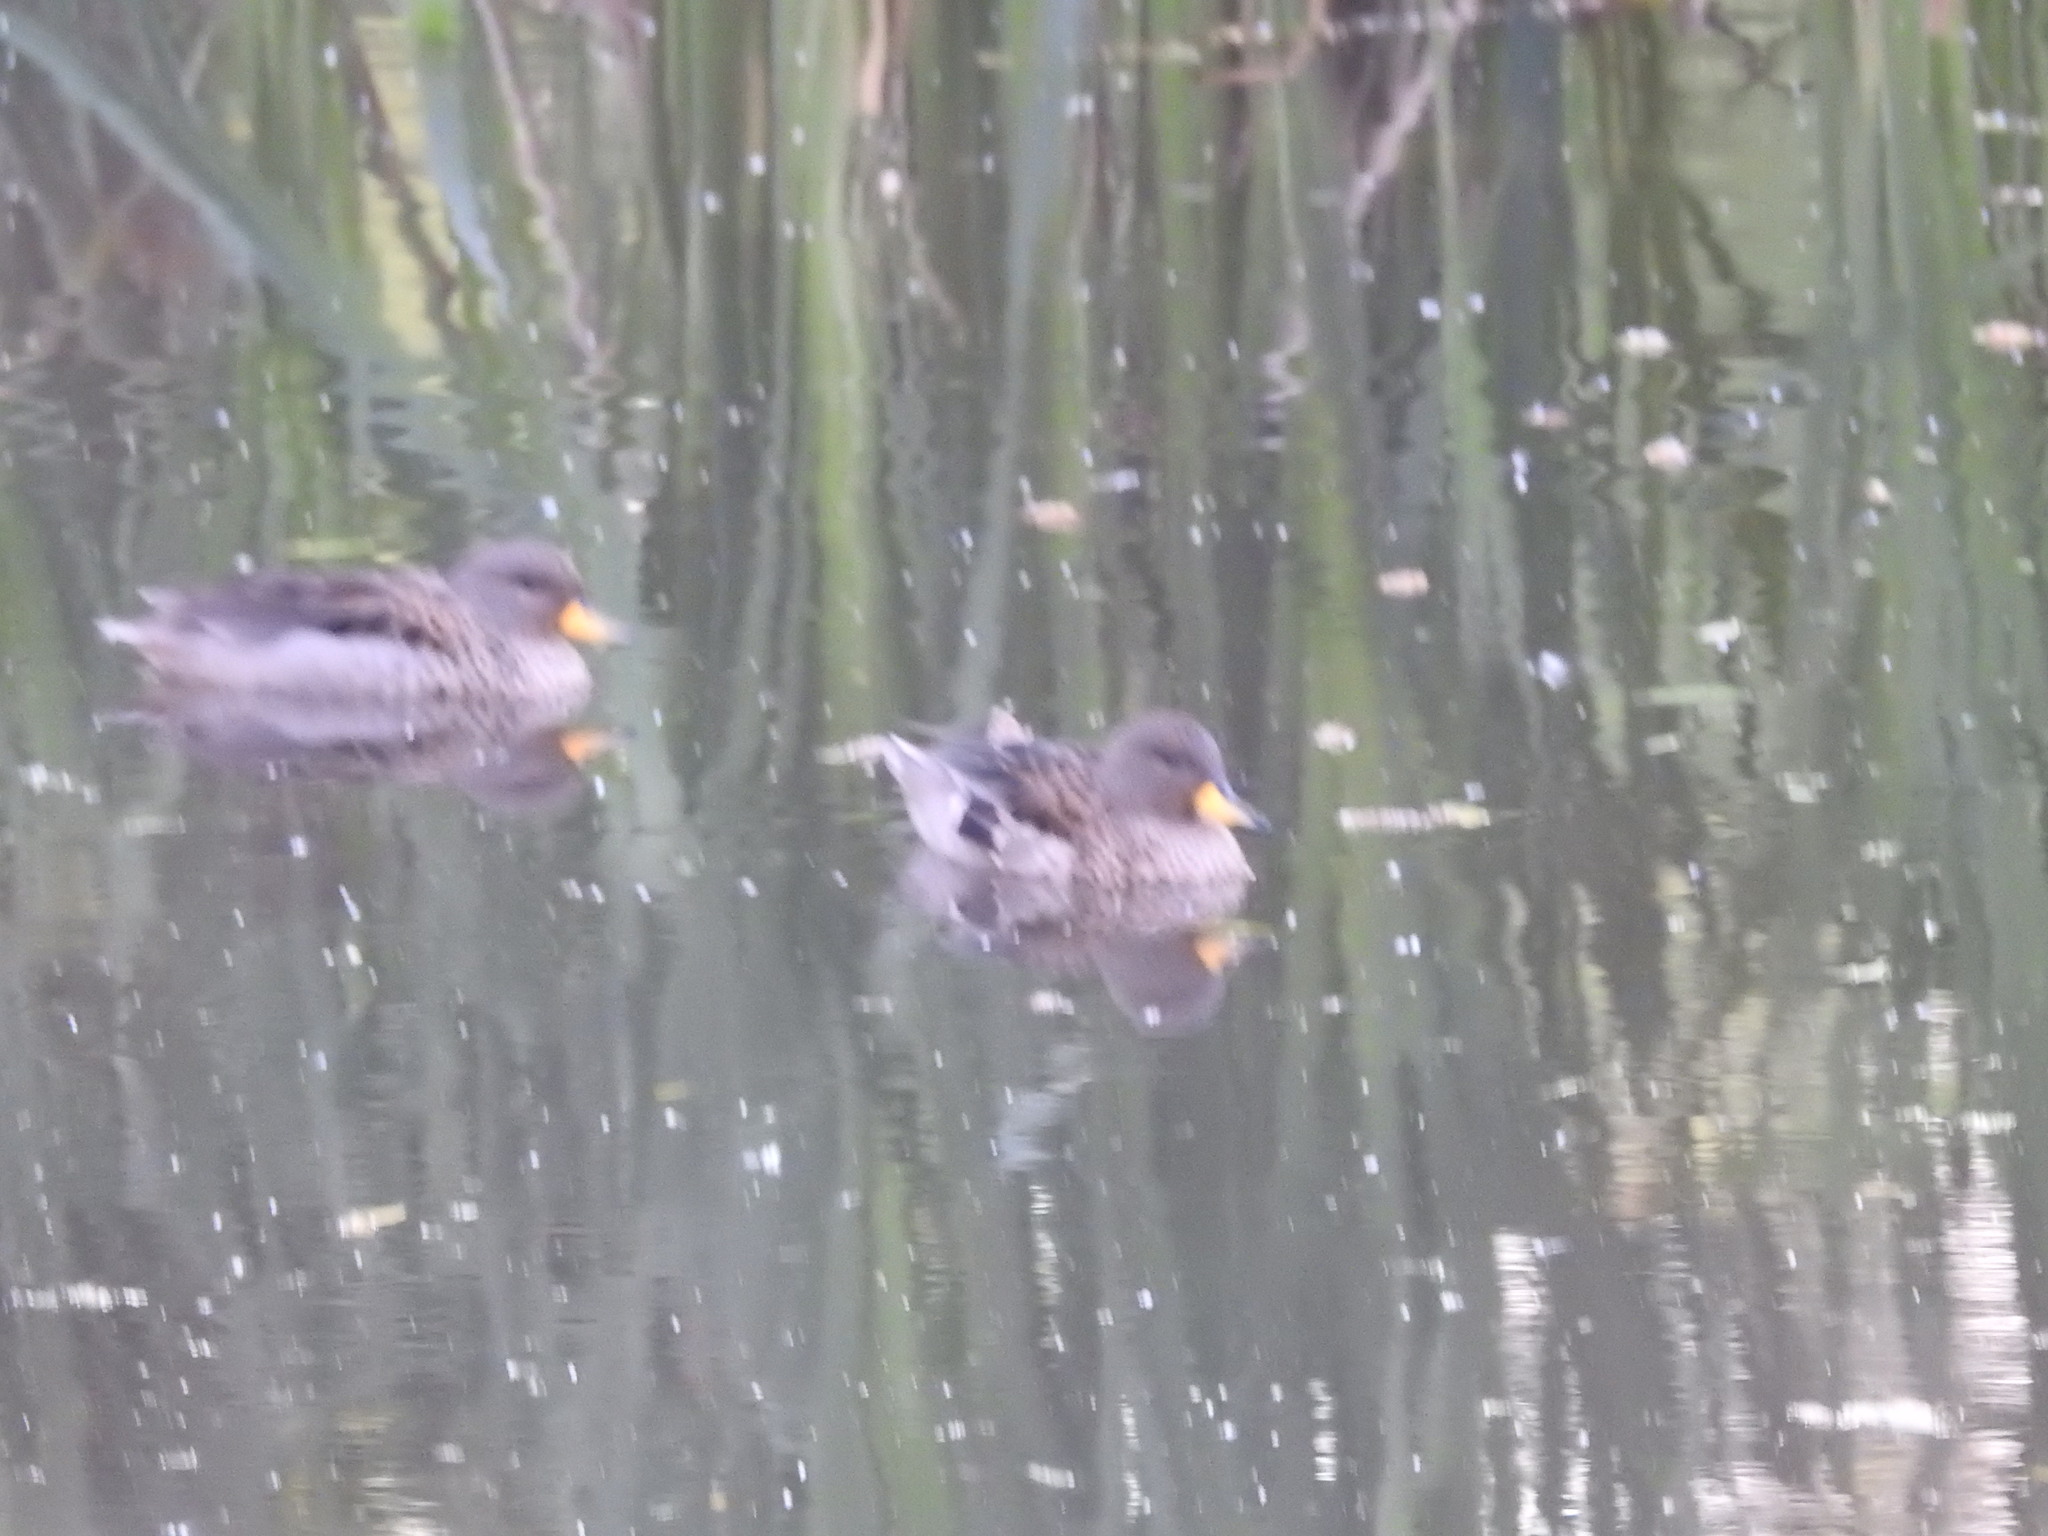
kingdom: Animalia
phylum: Chordata
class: Aves
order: Anseriformes
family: Anatidae
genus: Anas
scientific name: Anas flavirostris
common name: Yellow-billed teal
